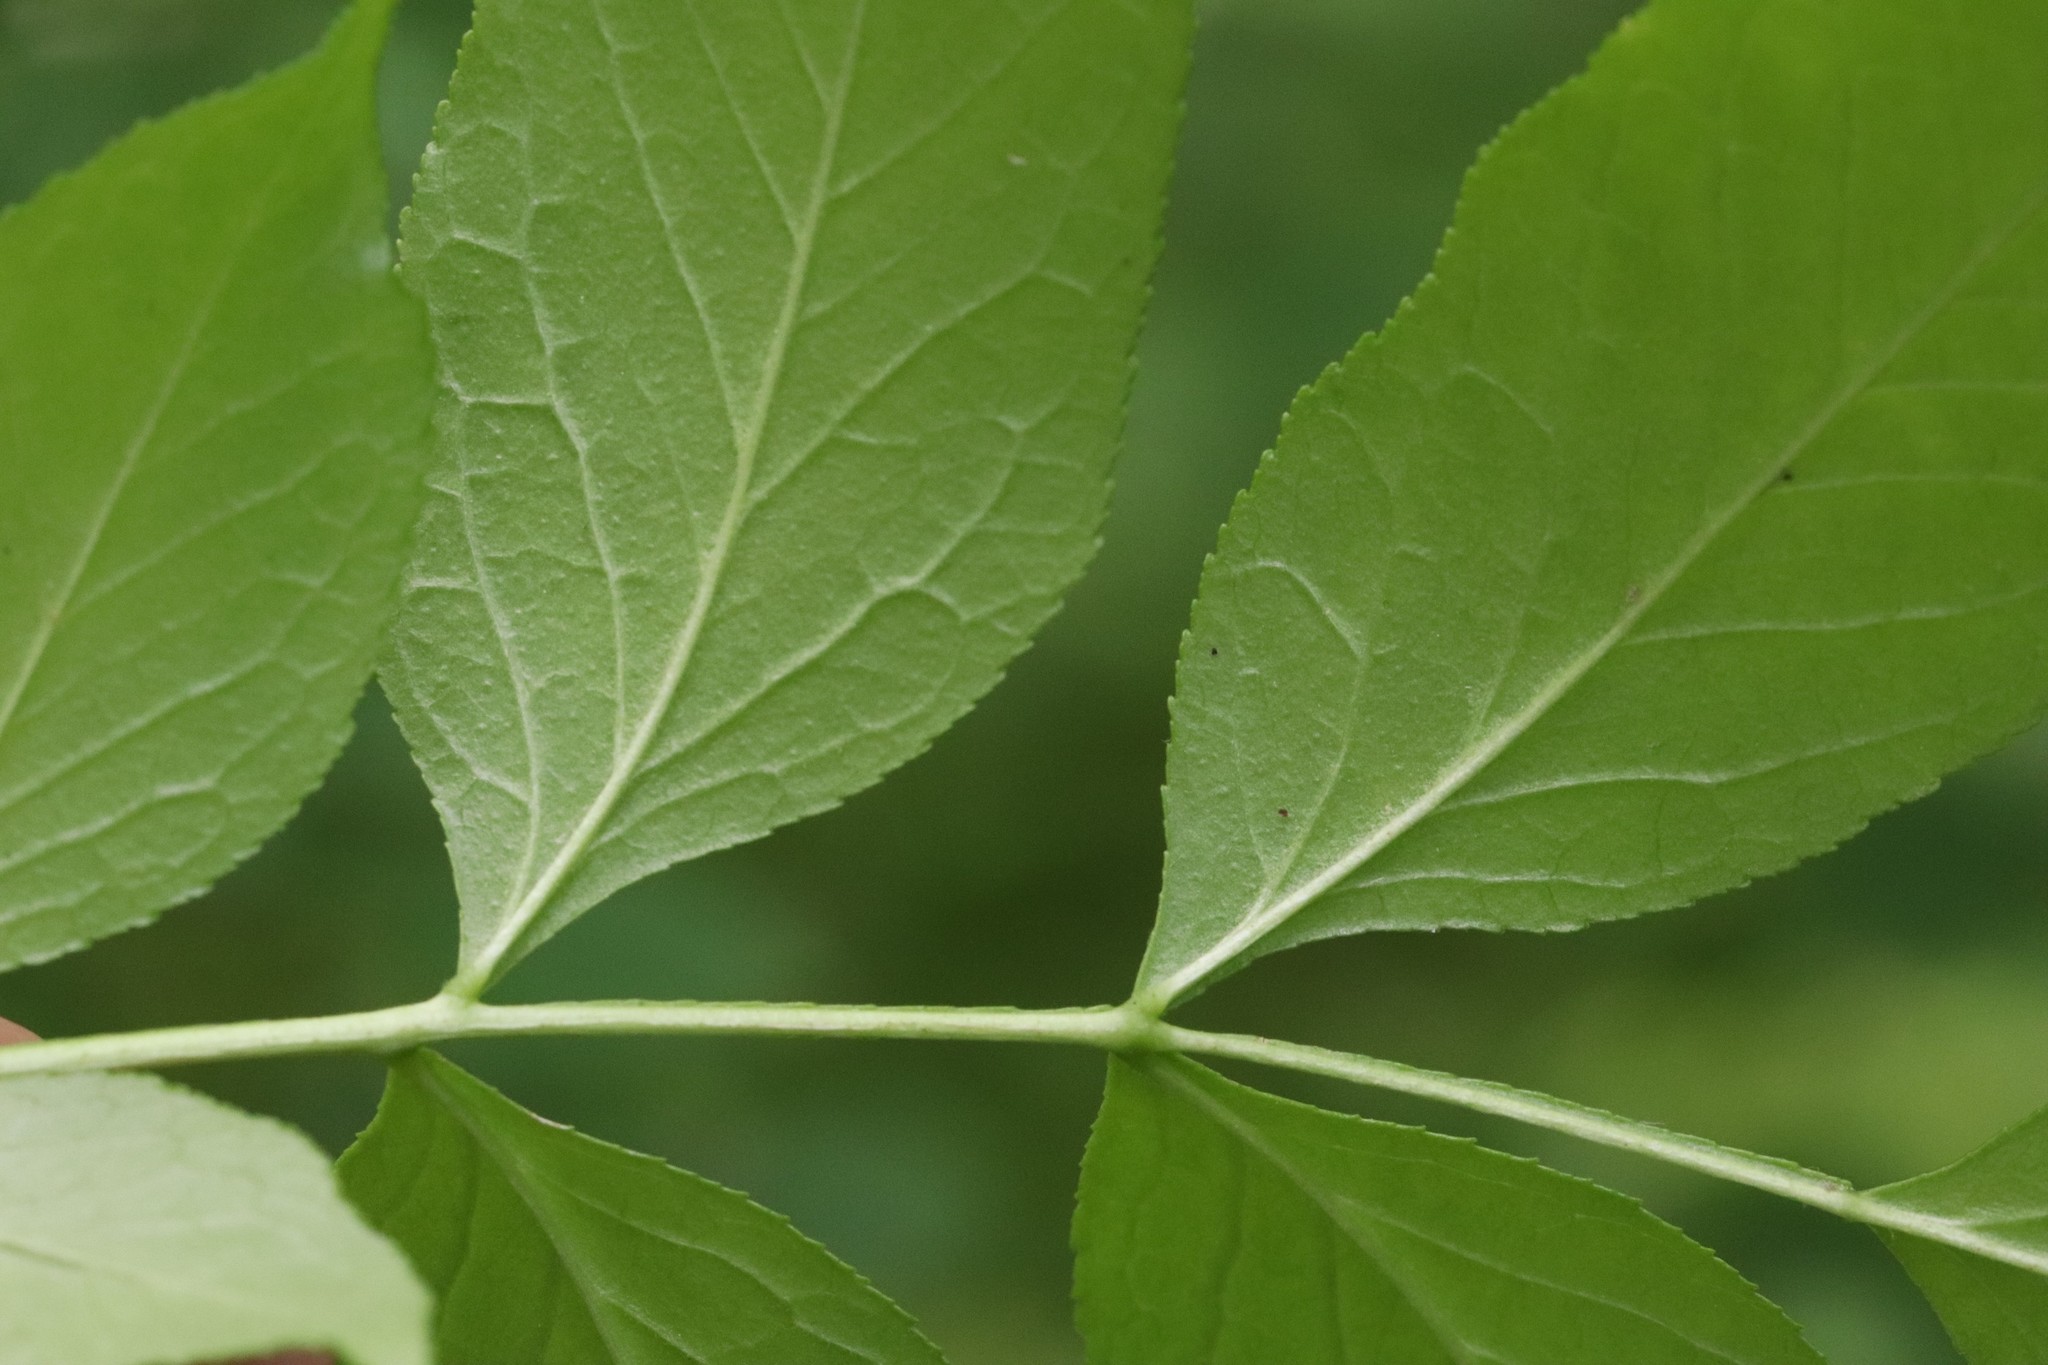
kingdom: Plantae
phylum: Tracheophyta
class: Magnoliopsida
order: Sapindales
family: Rutaceae
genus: Dictamnus
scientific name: Dictamnus dasycarpus
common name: Dense-fruit dittany
